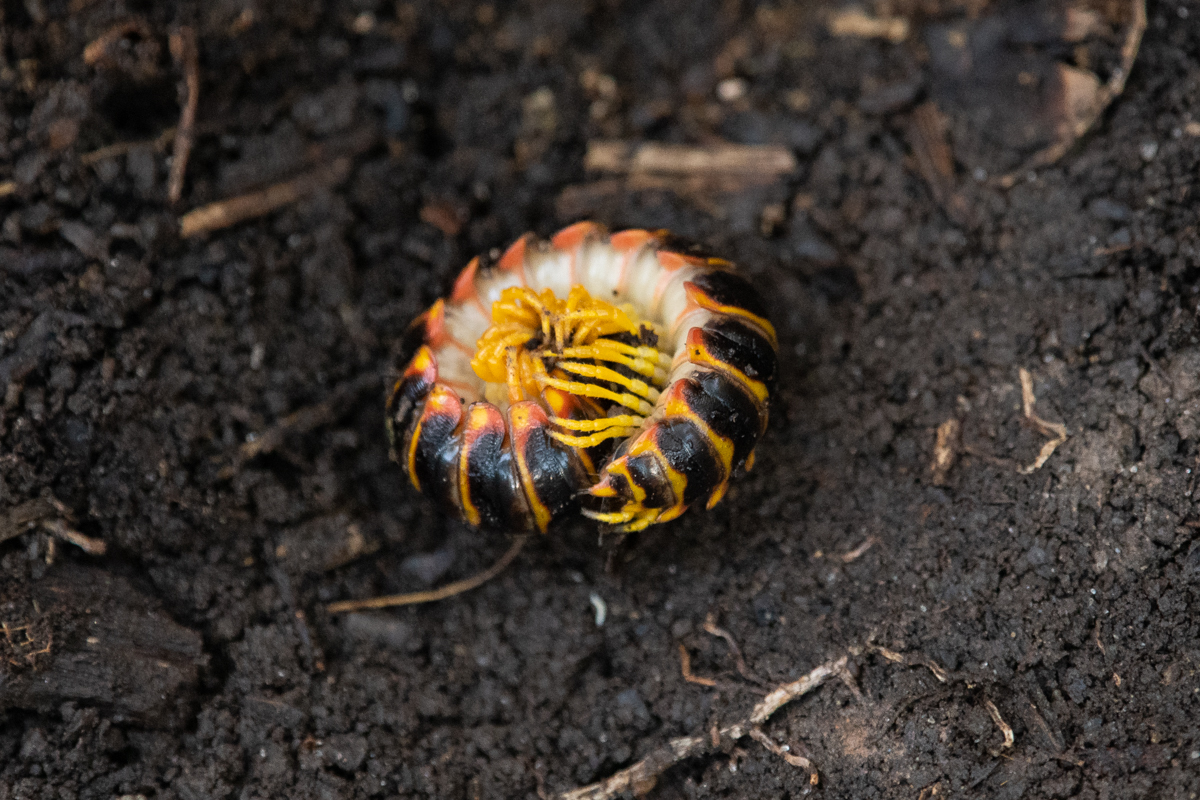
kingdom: Animalia
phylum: Arthropoda
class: Diplopoda
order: Polydesmida
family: Xystodesmidae
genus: Apheloria
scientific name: Apheloria virginiensis
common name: Black-and-gold flat millipede
